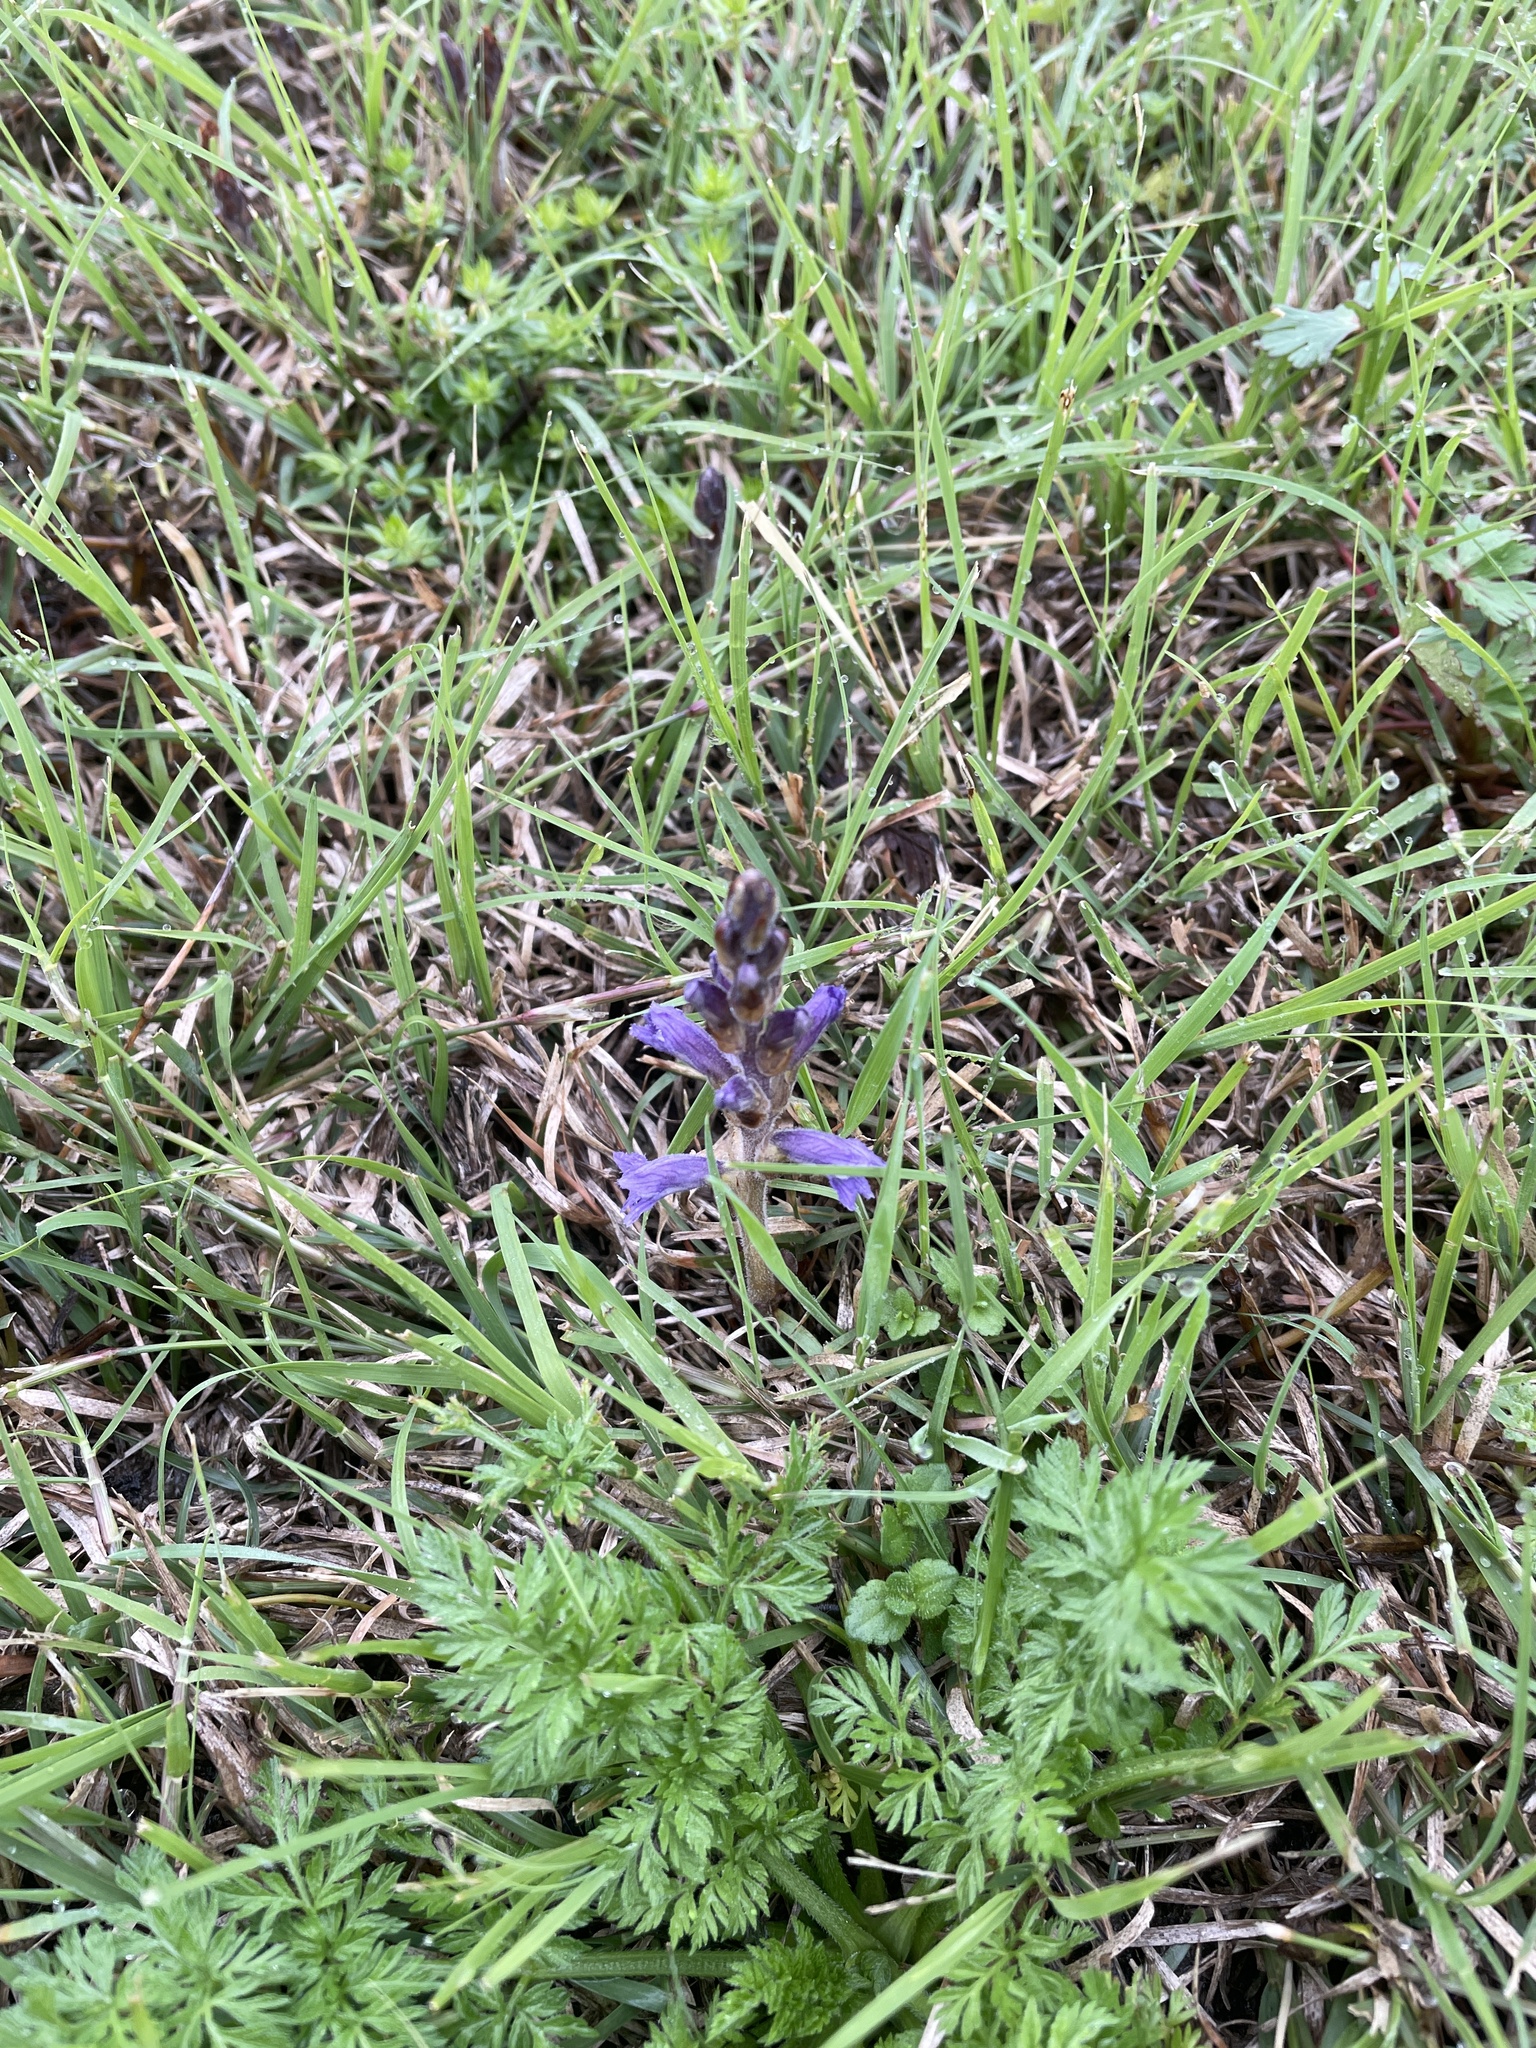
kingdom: Plantae
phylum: Tracheophyta
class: Magnoliopsida
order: Lamiales
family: Orobanchaceae
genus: Phelipanche
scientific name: Phelipanche mutelii
